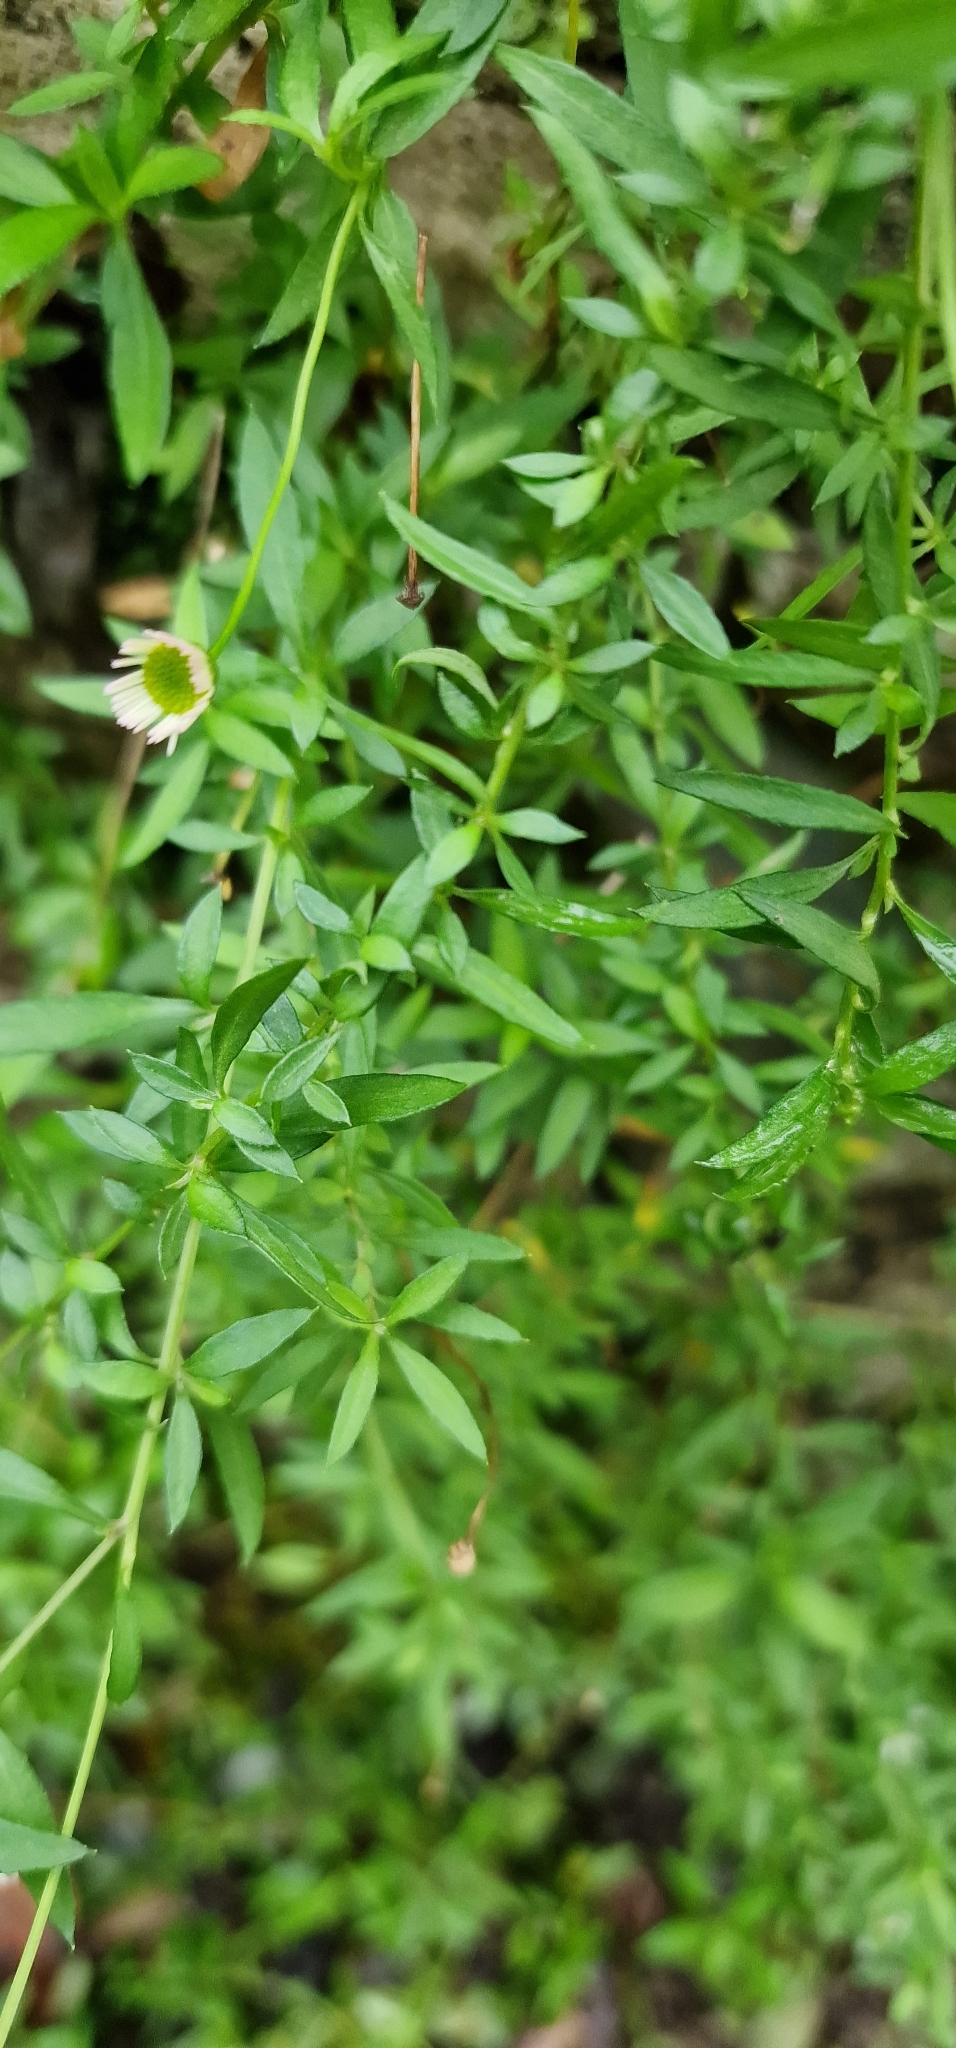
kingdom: Plantae
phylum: Tracheophyta
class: Magnoliopsida
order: Asterales
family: Asteraceae
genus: Erigeron
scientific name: Erigeron karvinskianus
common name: Mexican fleabane
